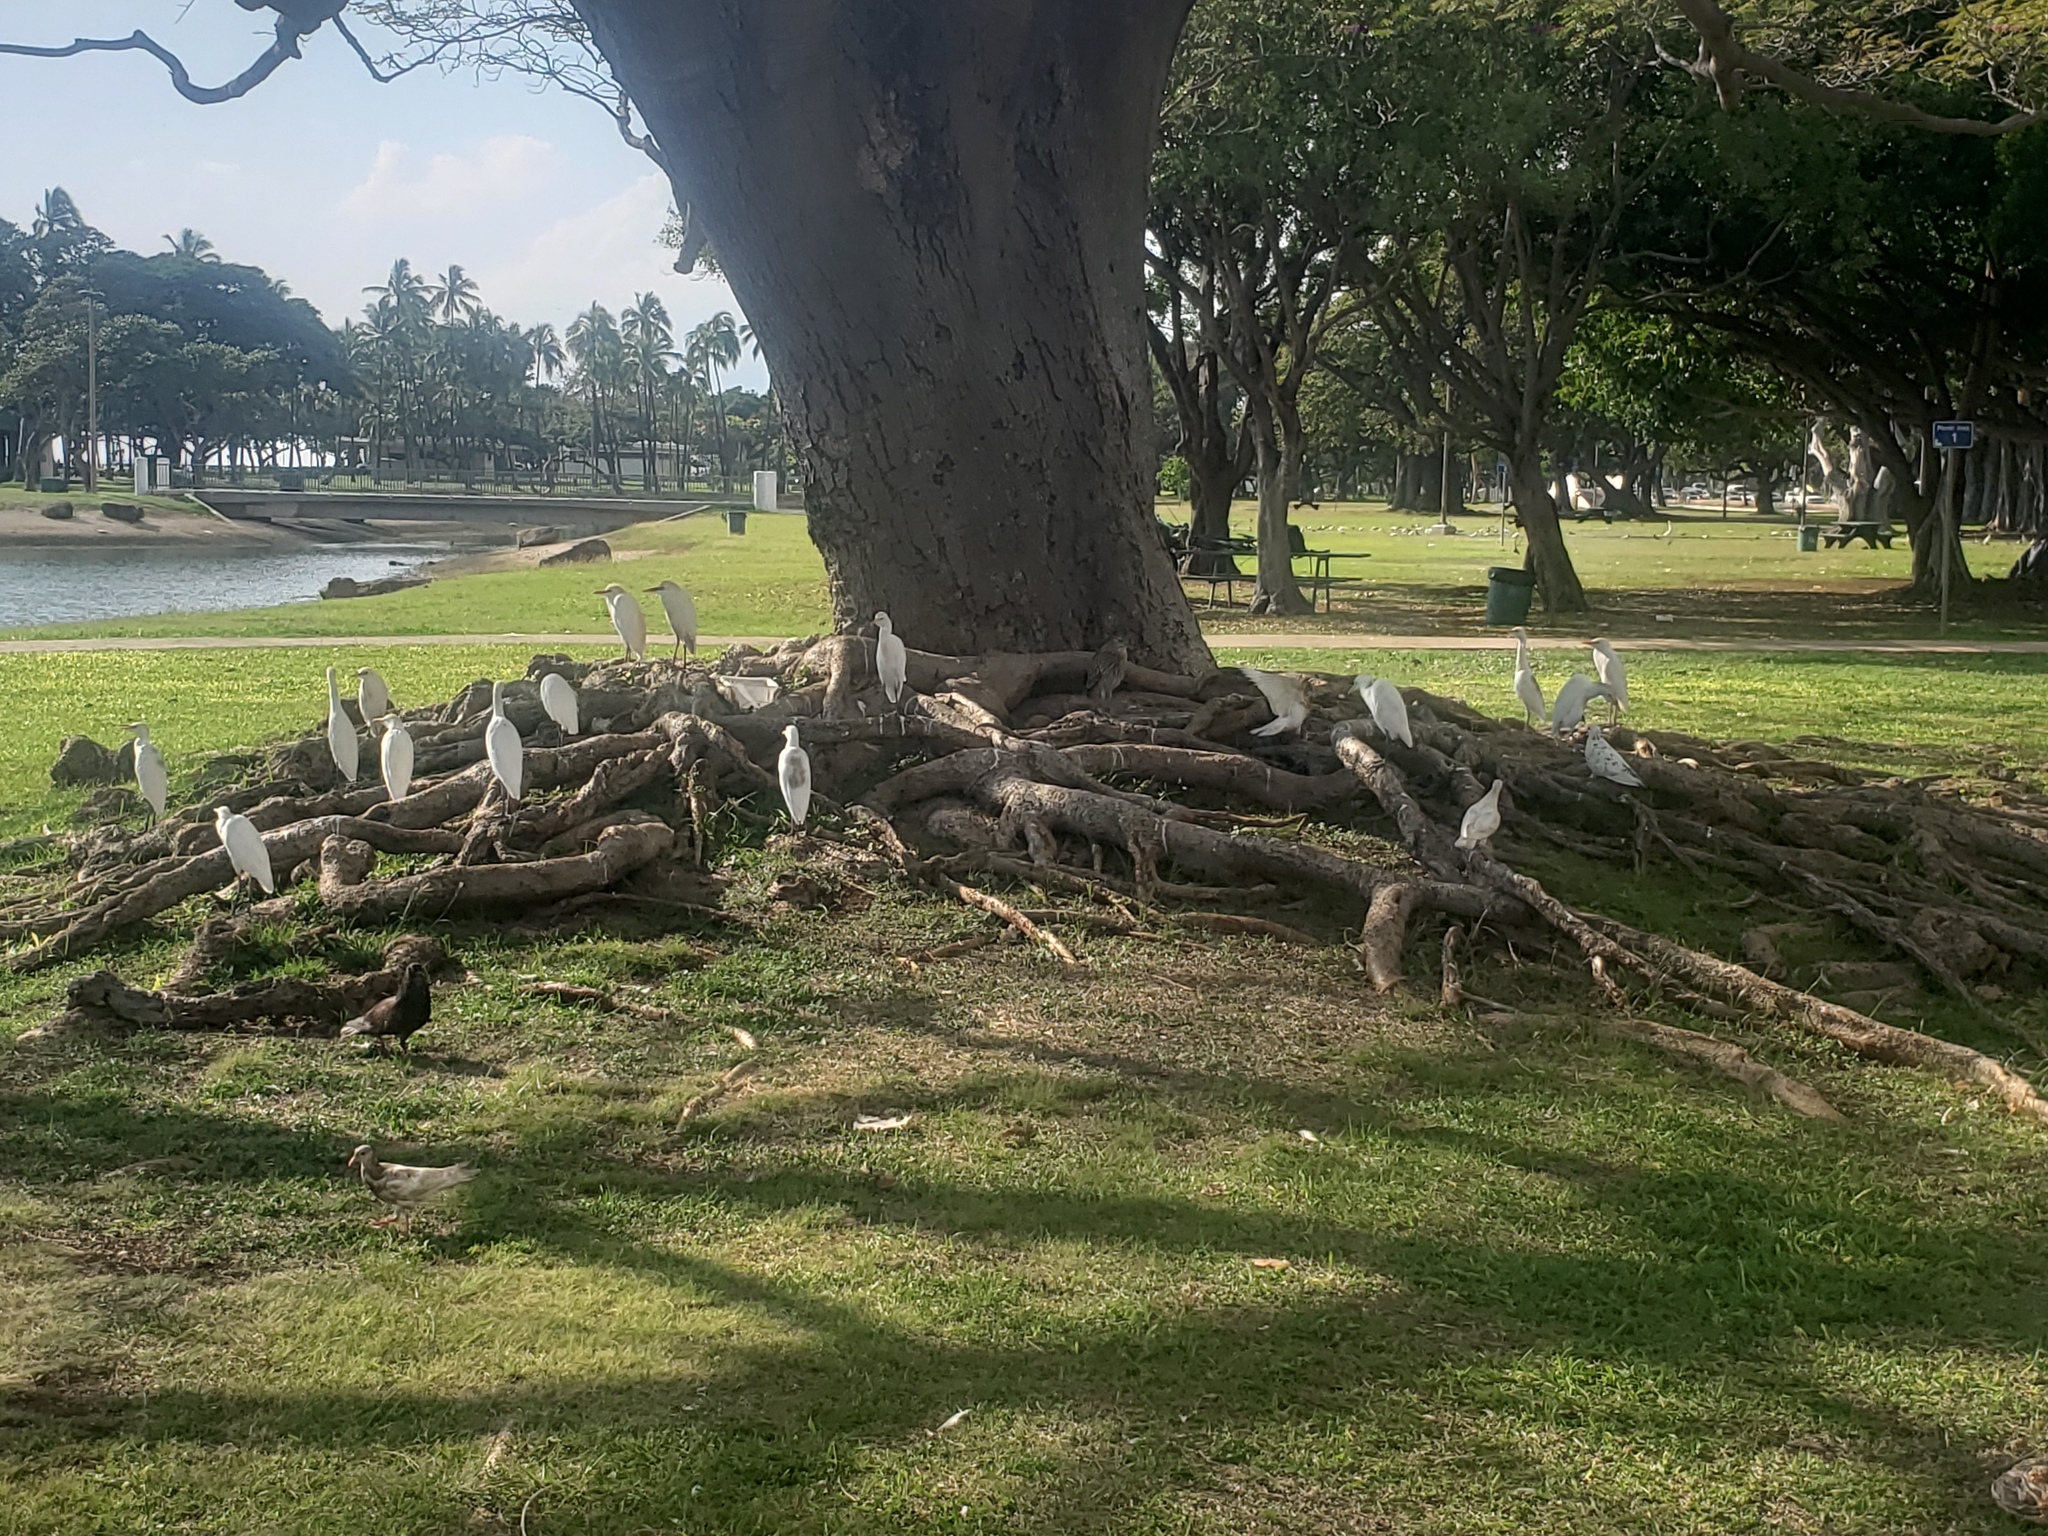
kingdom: Animalia
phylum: Chordata
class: Aves
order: Pelecaniformes
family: Ardeidae
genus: Bubulcus
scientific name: Bubulcus ibis
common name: Cattle egret
